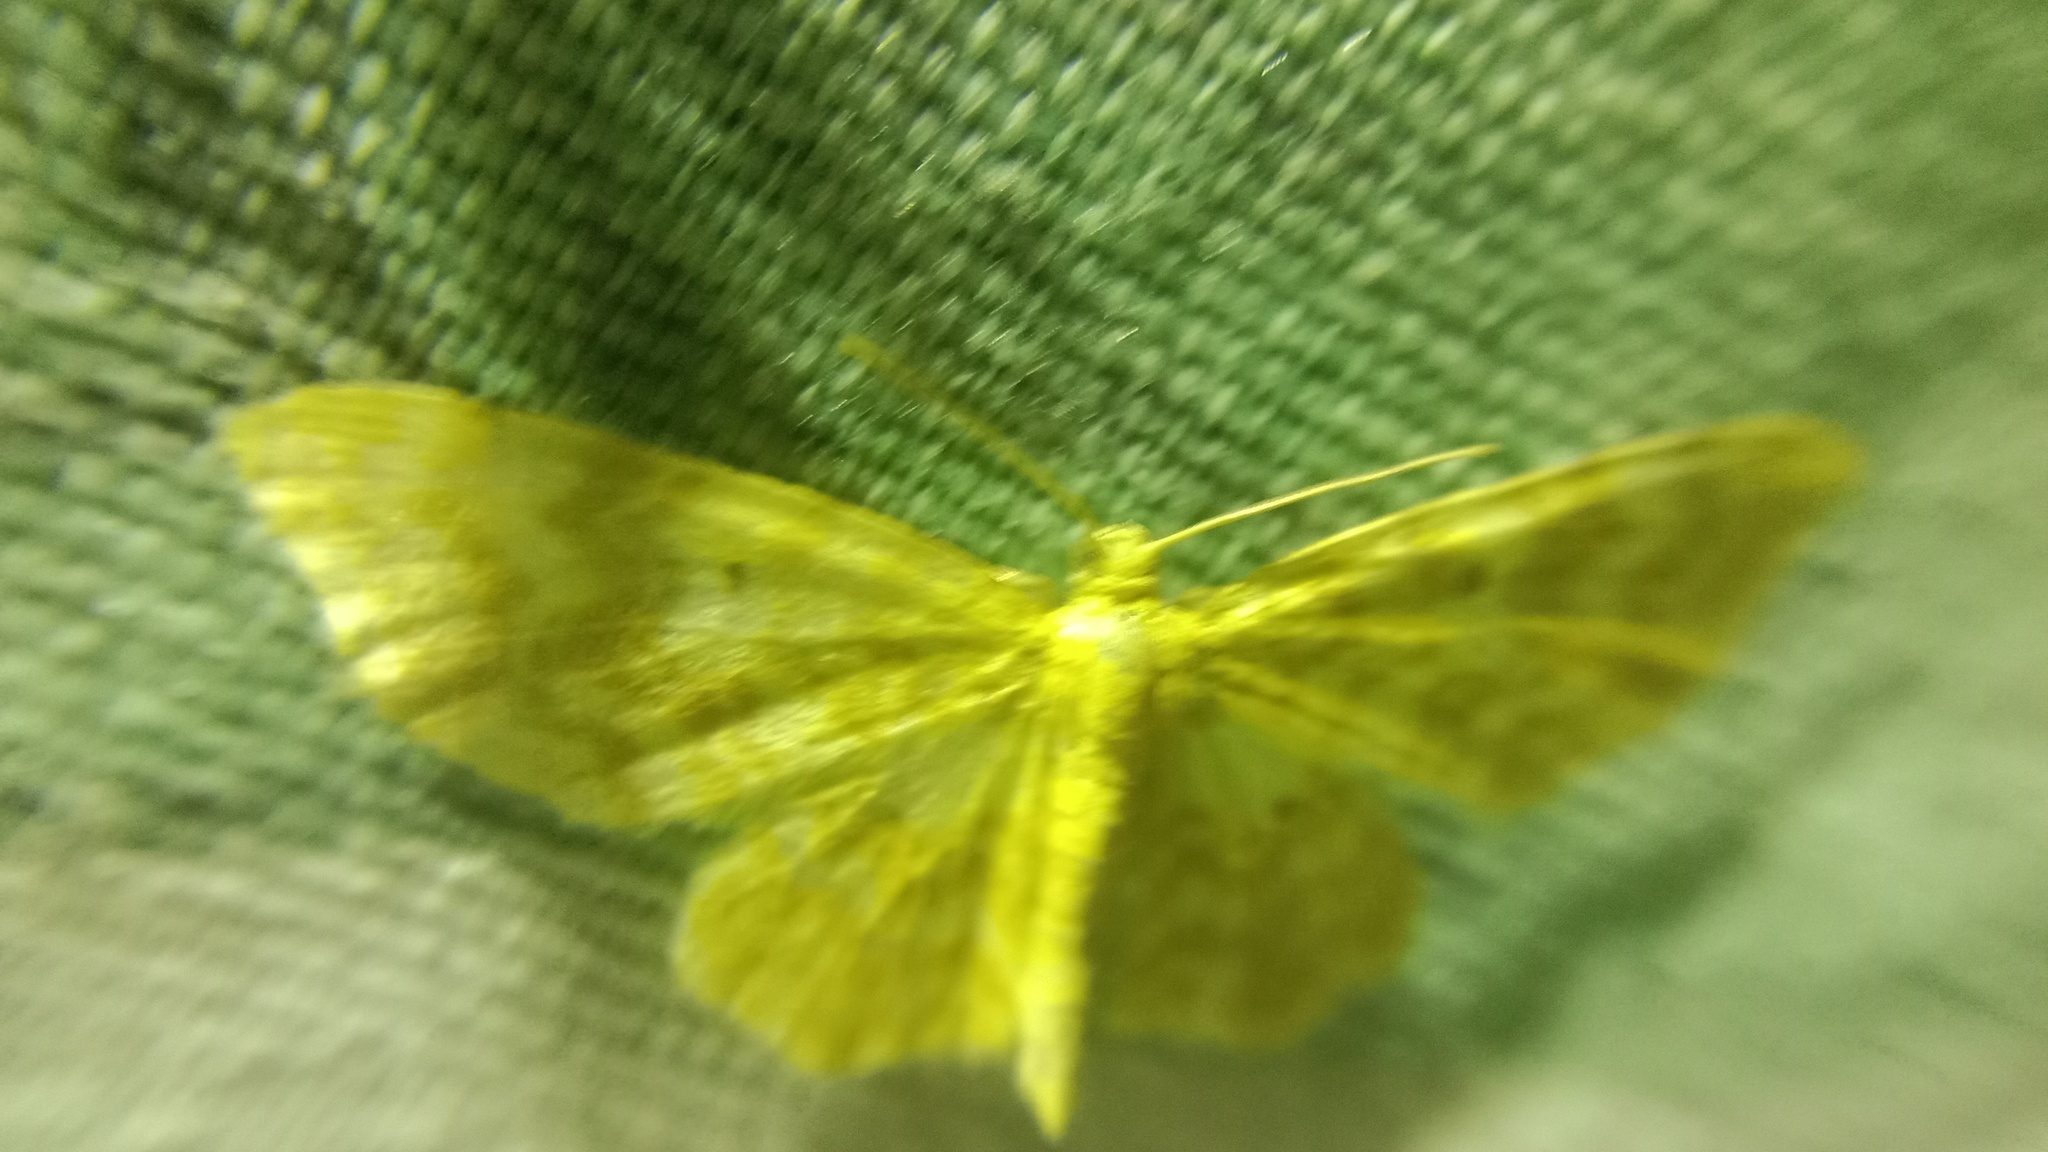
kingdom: Animalia
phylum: Arthropoda
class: Insecta
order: Lepidoptera
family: Geometridae
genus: Hydrelia
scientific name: Hydrelia flammeolaria
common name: Small yellow wave
